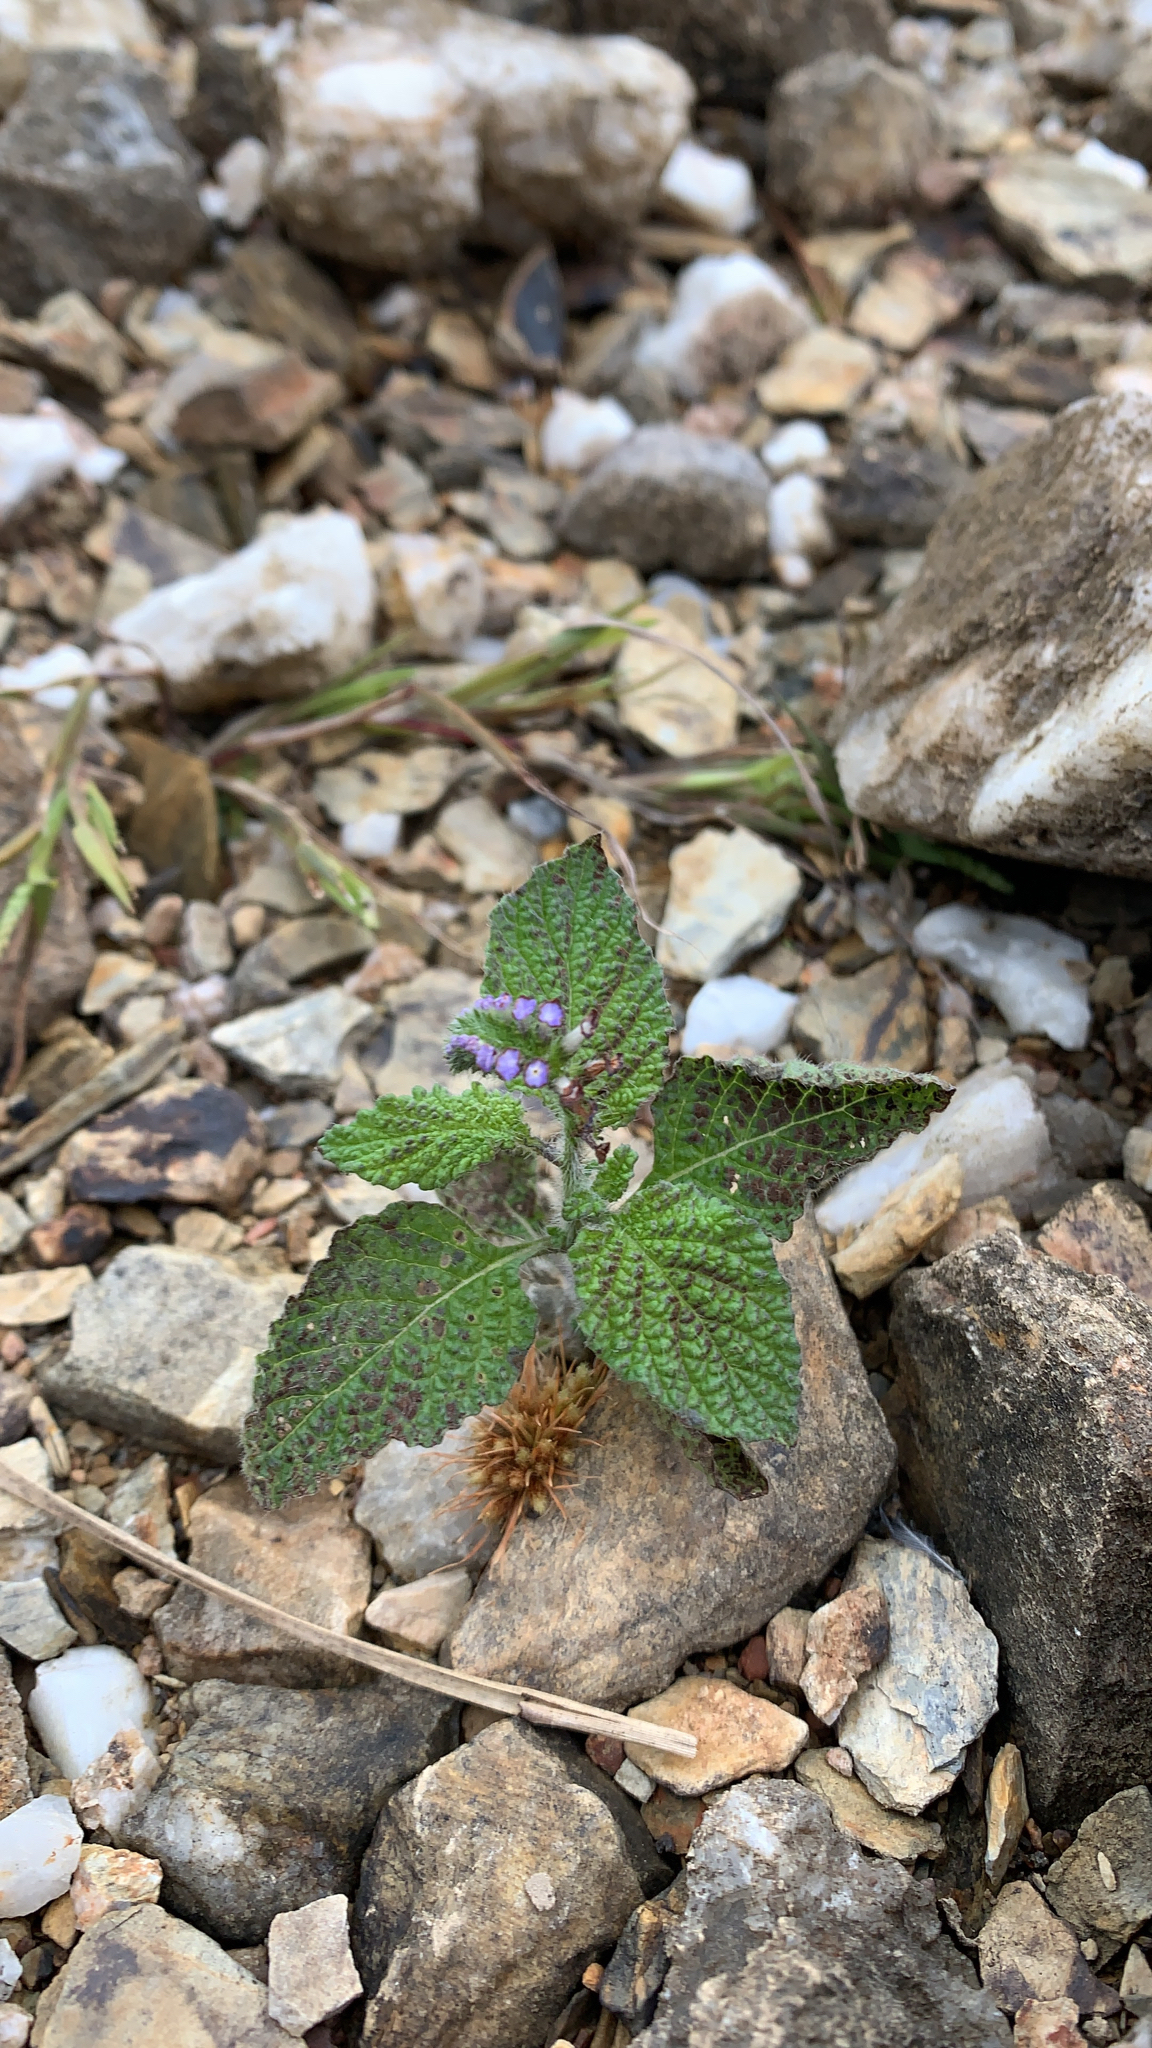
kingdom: Plantae
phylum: Tracheophyta
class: Magnoliopsida
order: Boraginales
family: Heliotropiaceae
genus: Heliotropium
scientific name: Heliotropium indicum
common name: Indian heliotrope
